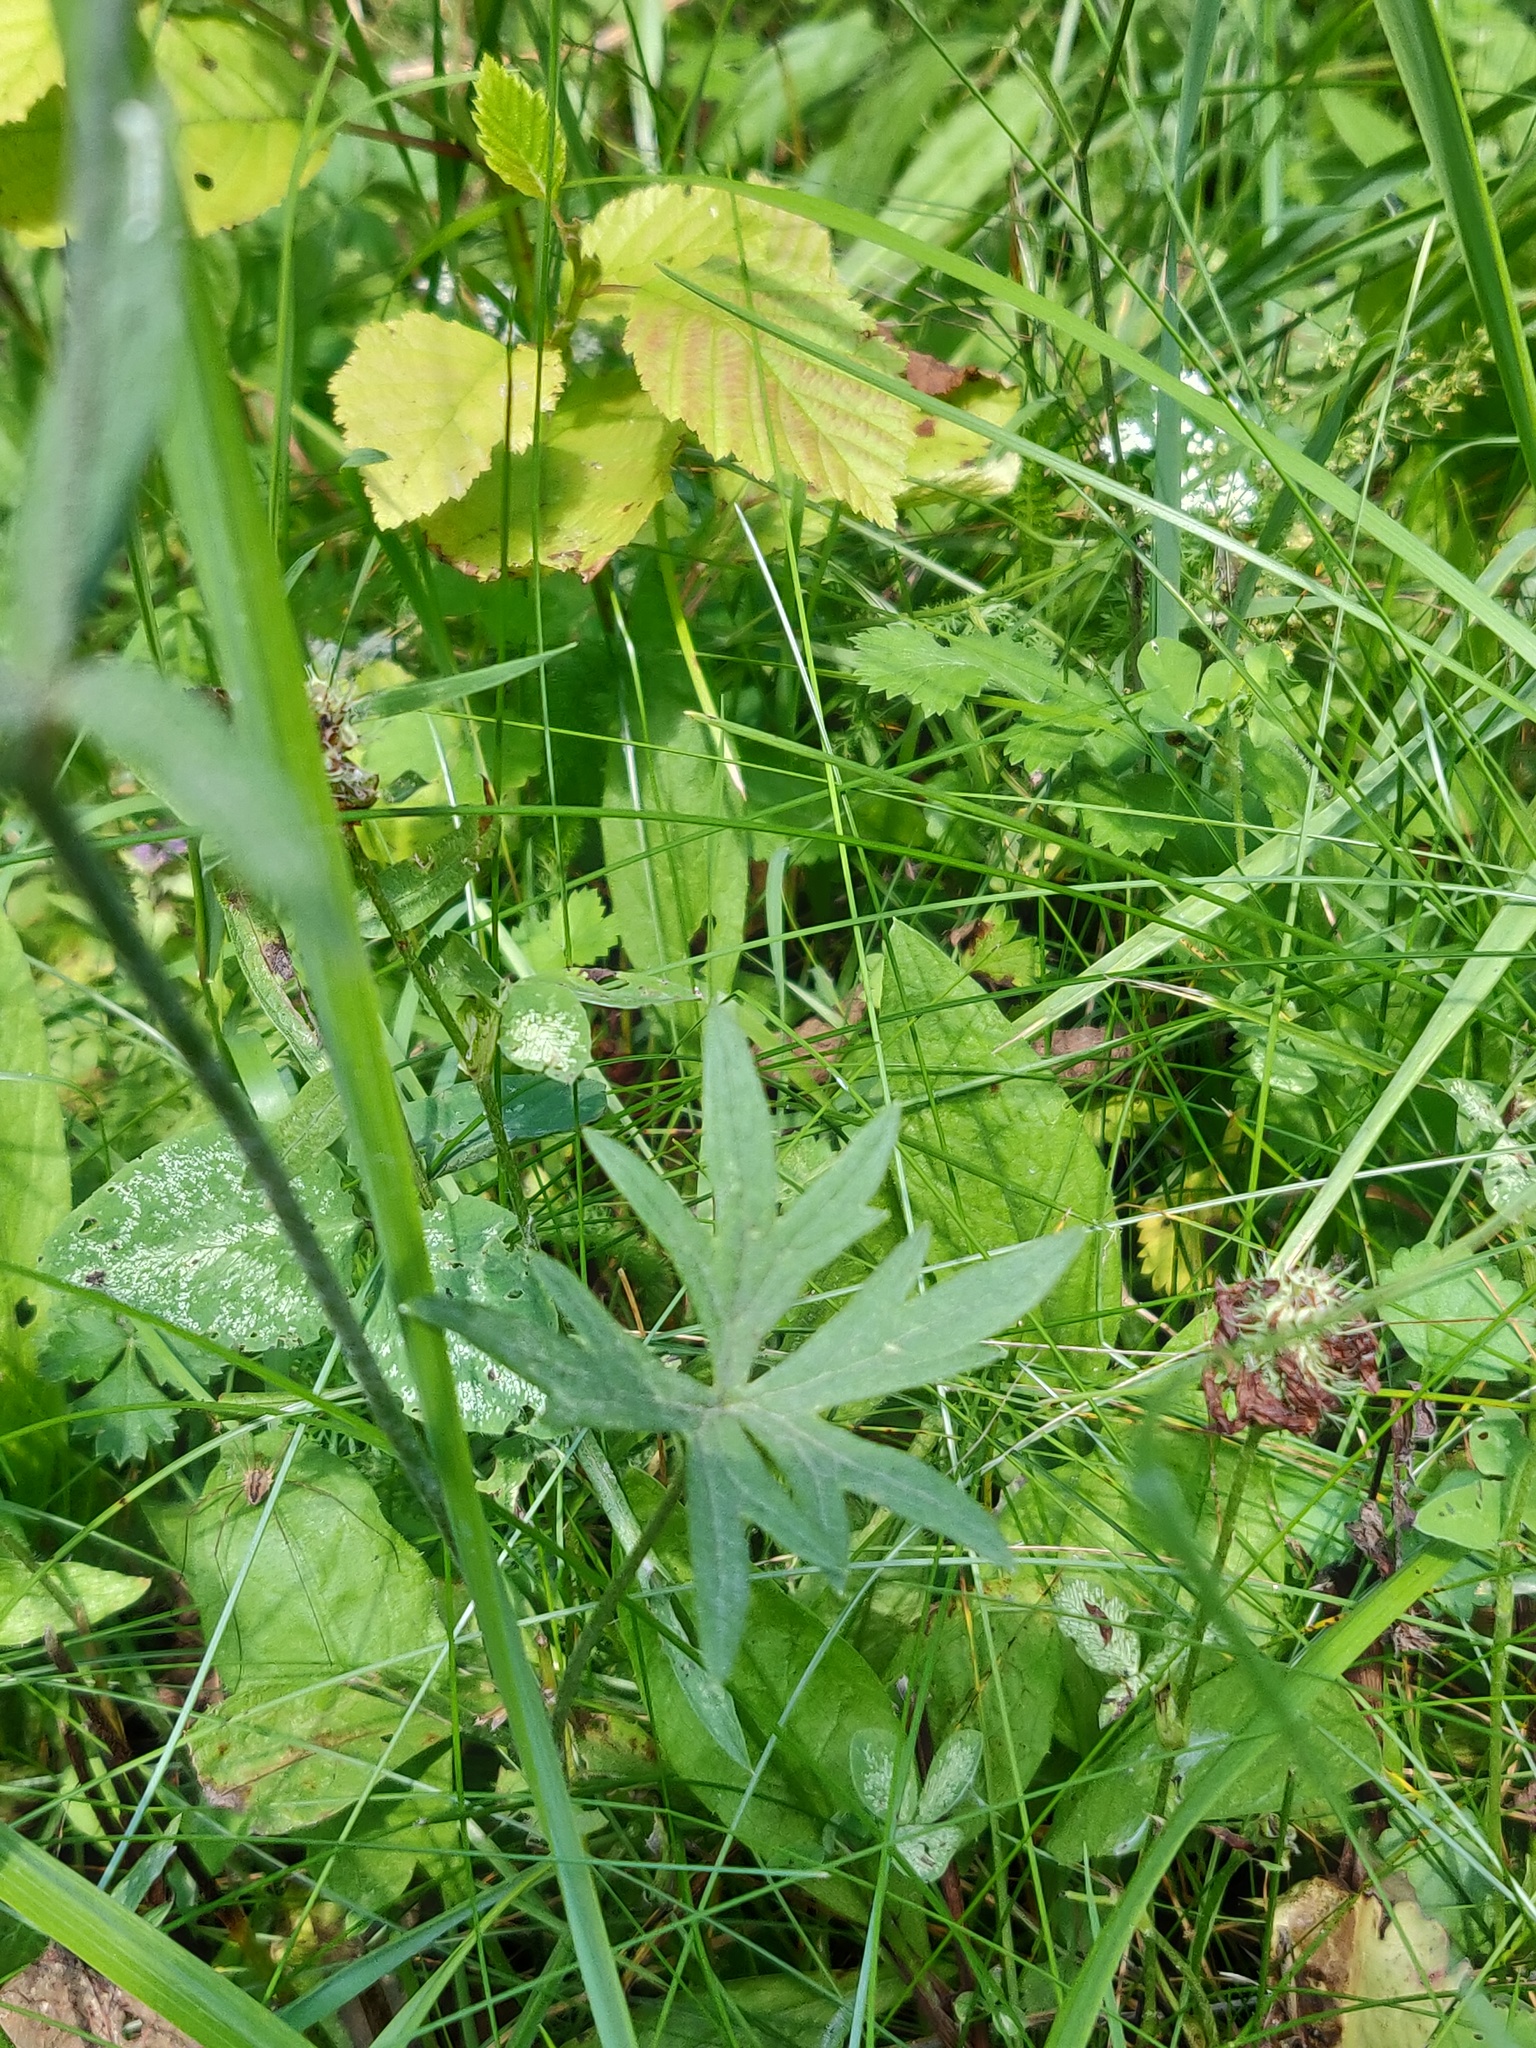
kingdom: Plantae
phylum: Tracheophyta
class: Magnoliopsida
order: Ranunculales
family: Ranunculaceae
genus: Ranunculus
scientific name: Ranunculus acris
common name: Meadow buttercup
